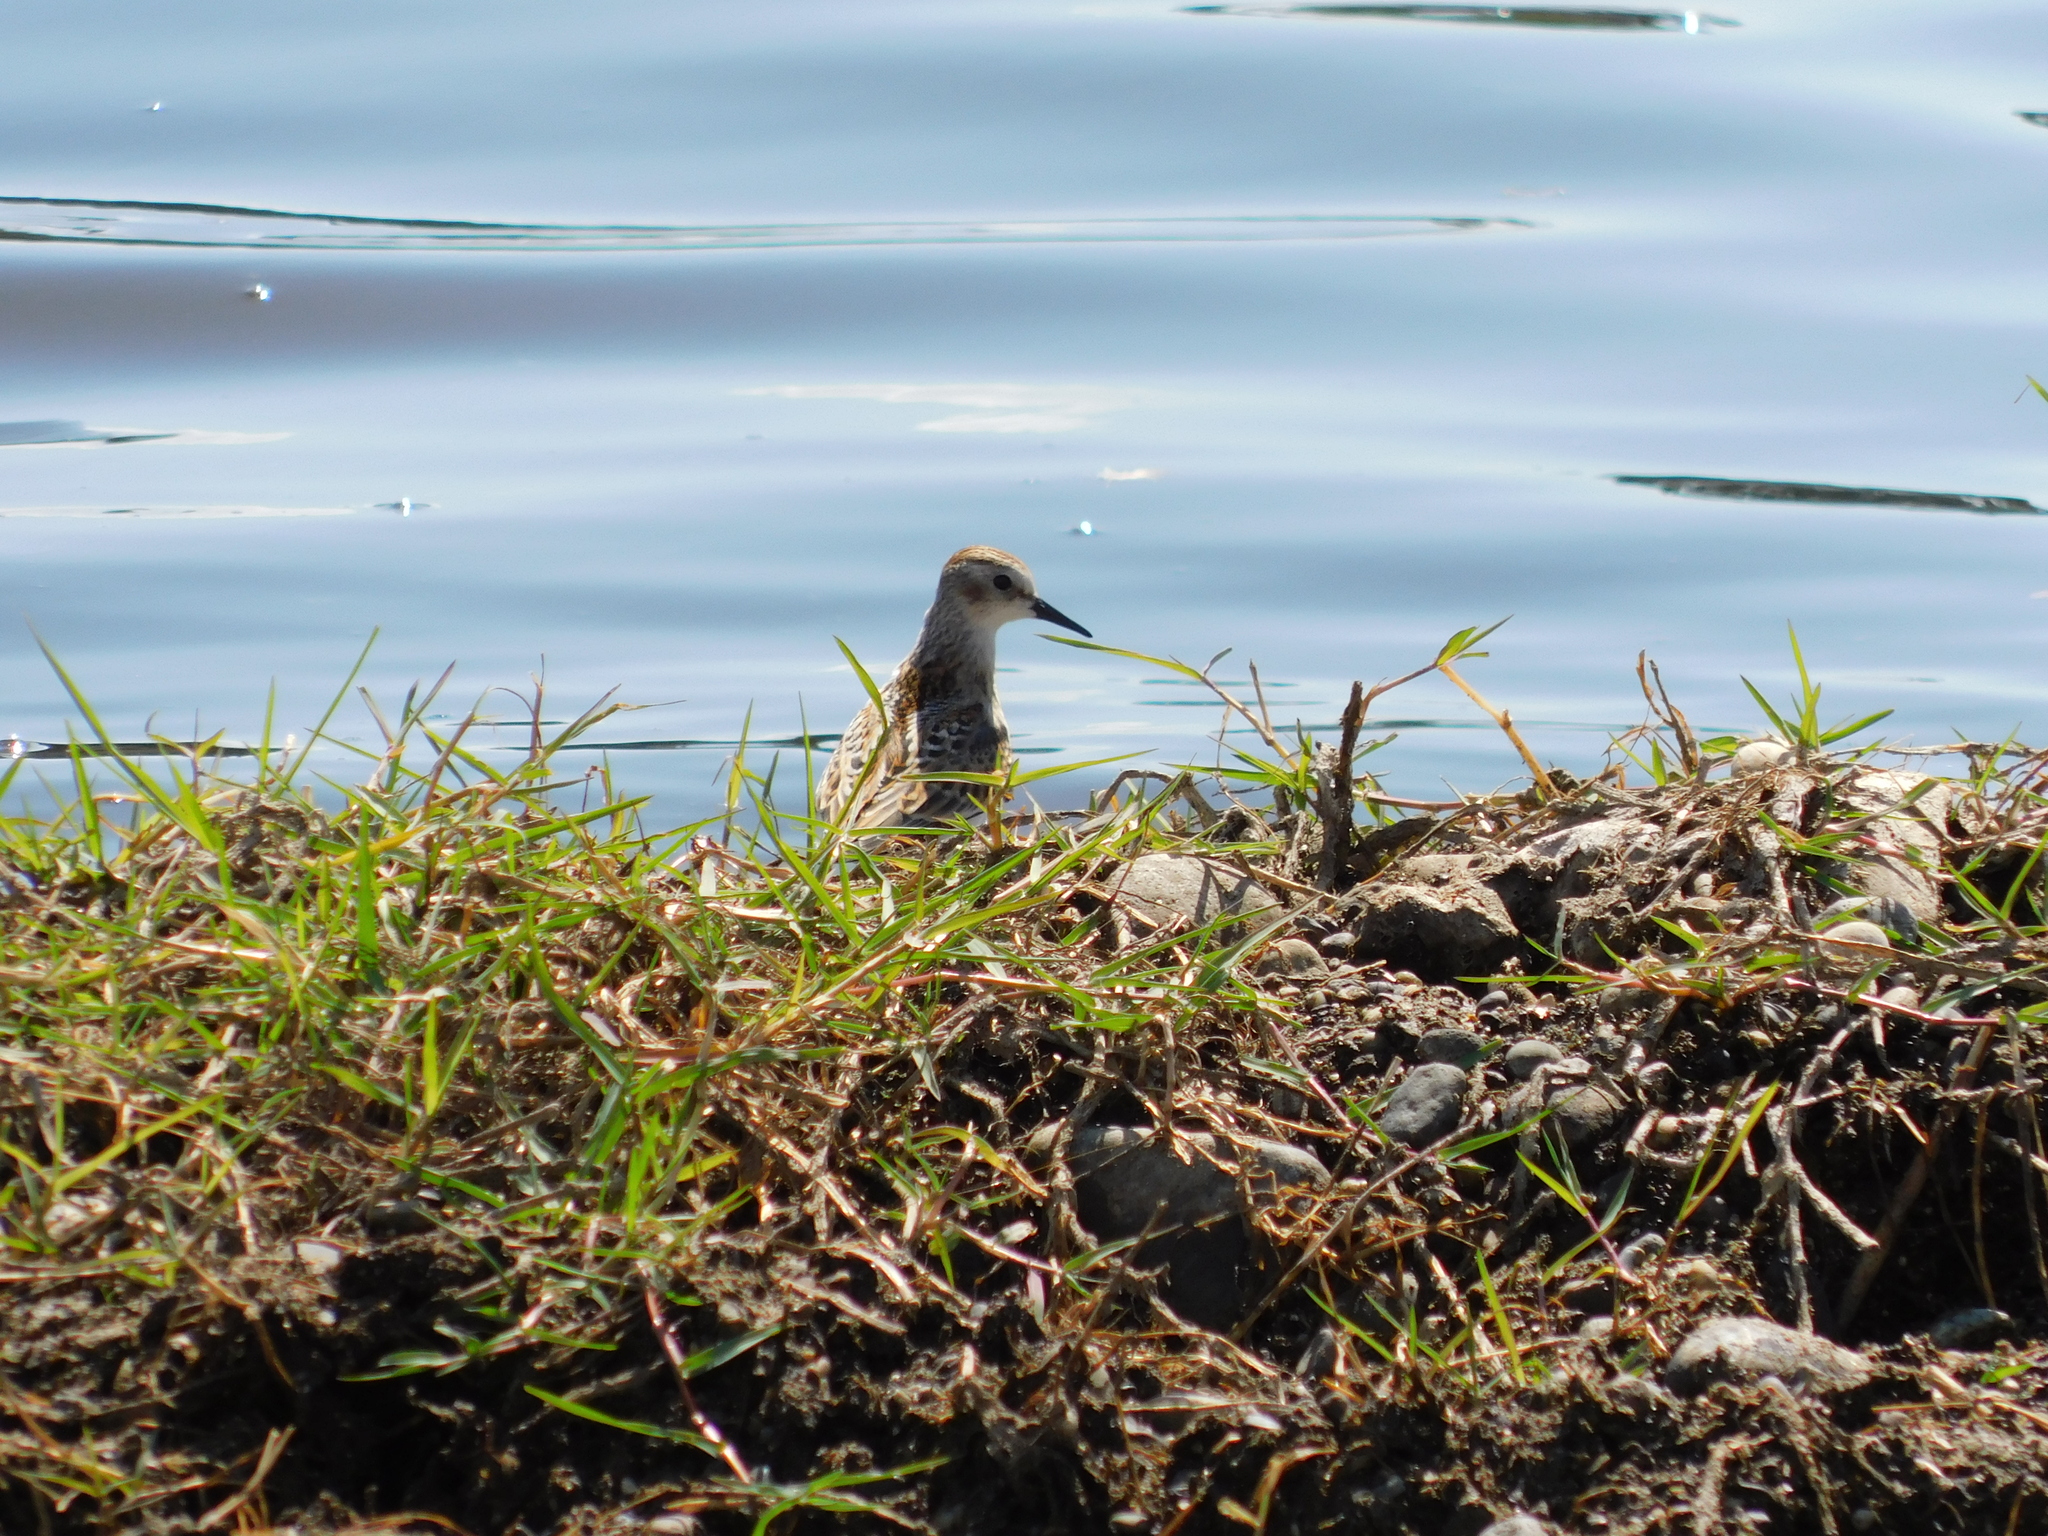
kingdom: Animalia
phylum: Chordata
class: Aves
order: Charadriiformes
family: Scolopacidae
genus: Calidris
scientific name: Calidris minuta
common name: Little stint
